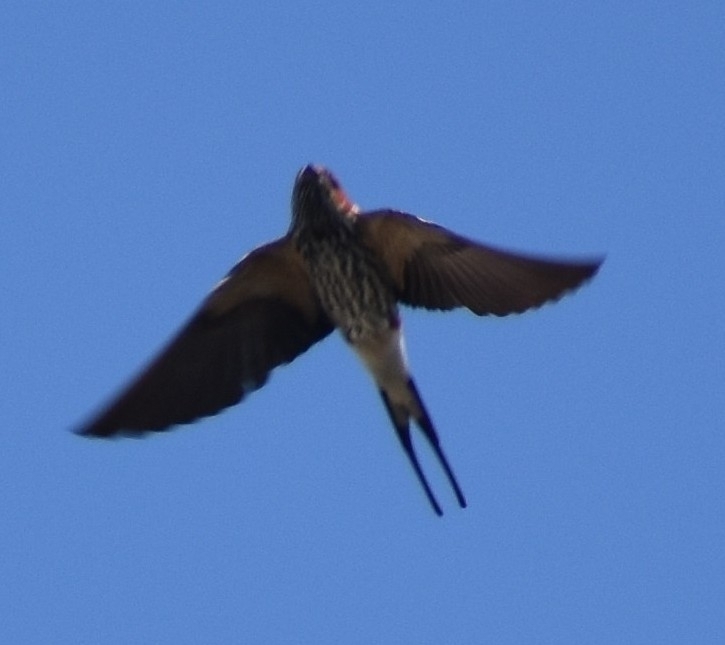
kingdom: Animalia
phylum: Chordata
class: Aves
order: Passeriformes
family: Hirundinidae
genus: Cecropis
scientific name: Cecropis abyssinica
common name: Lesser striped-swallow
